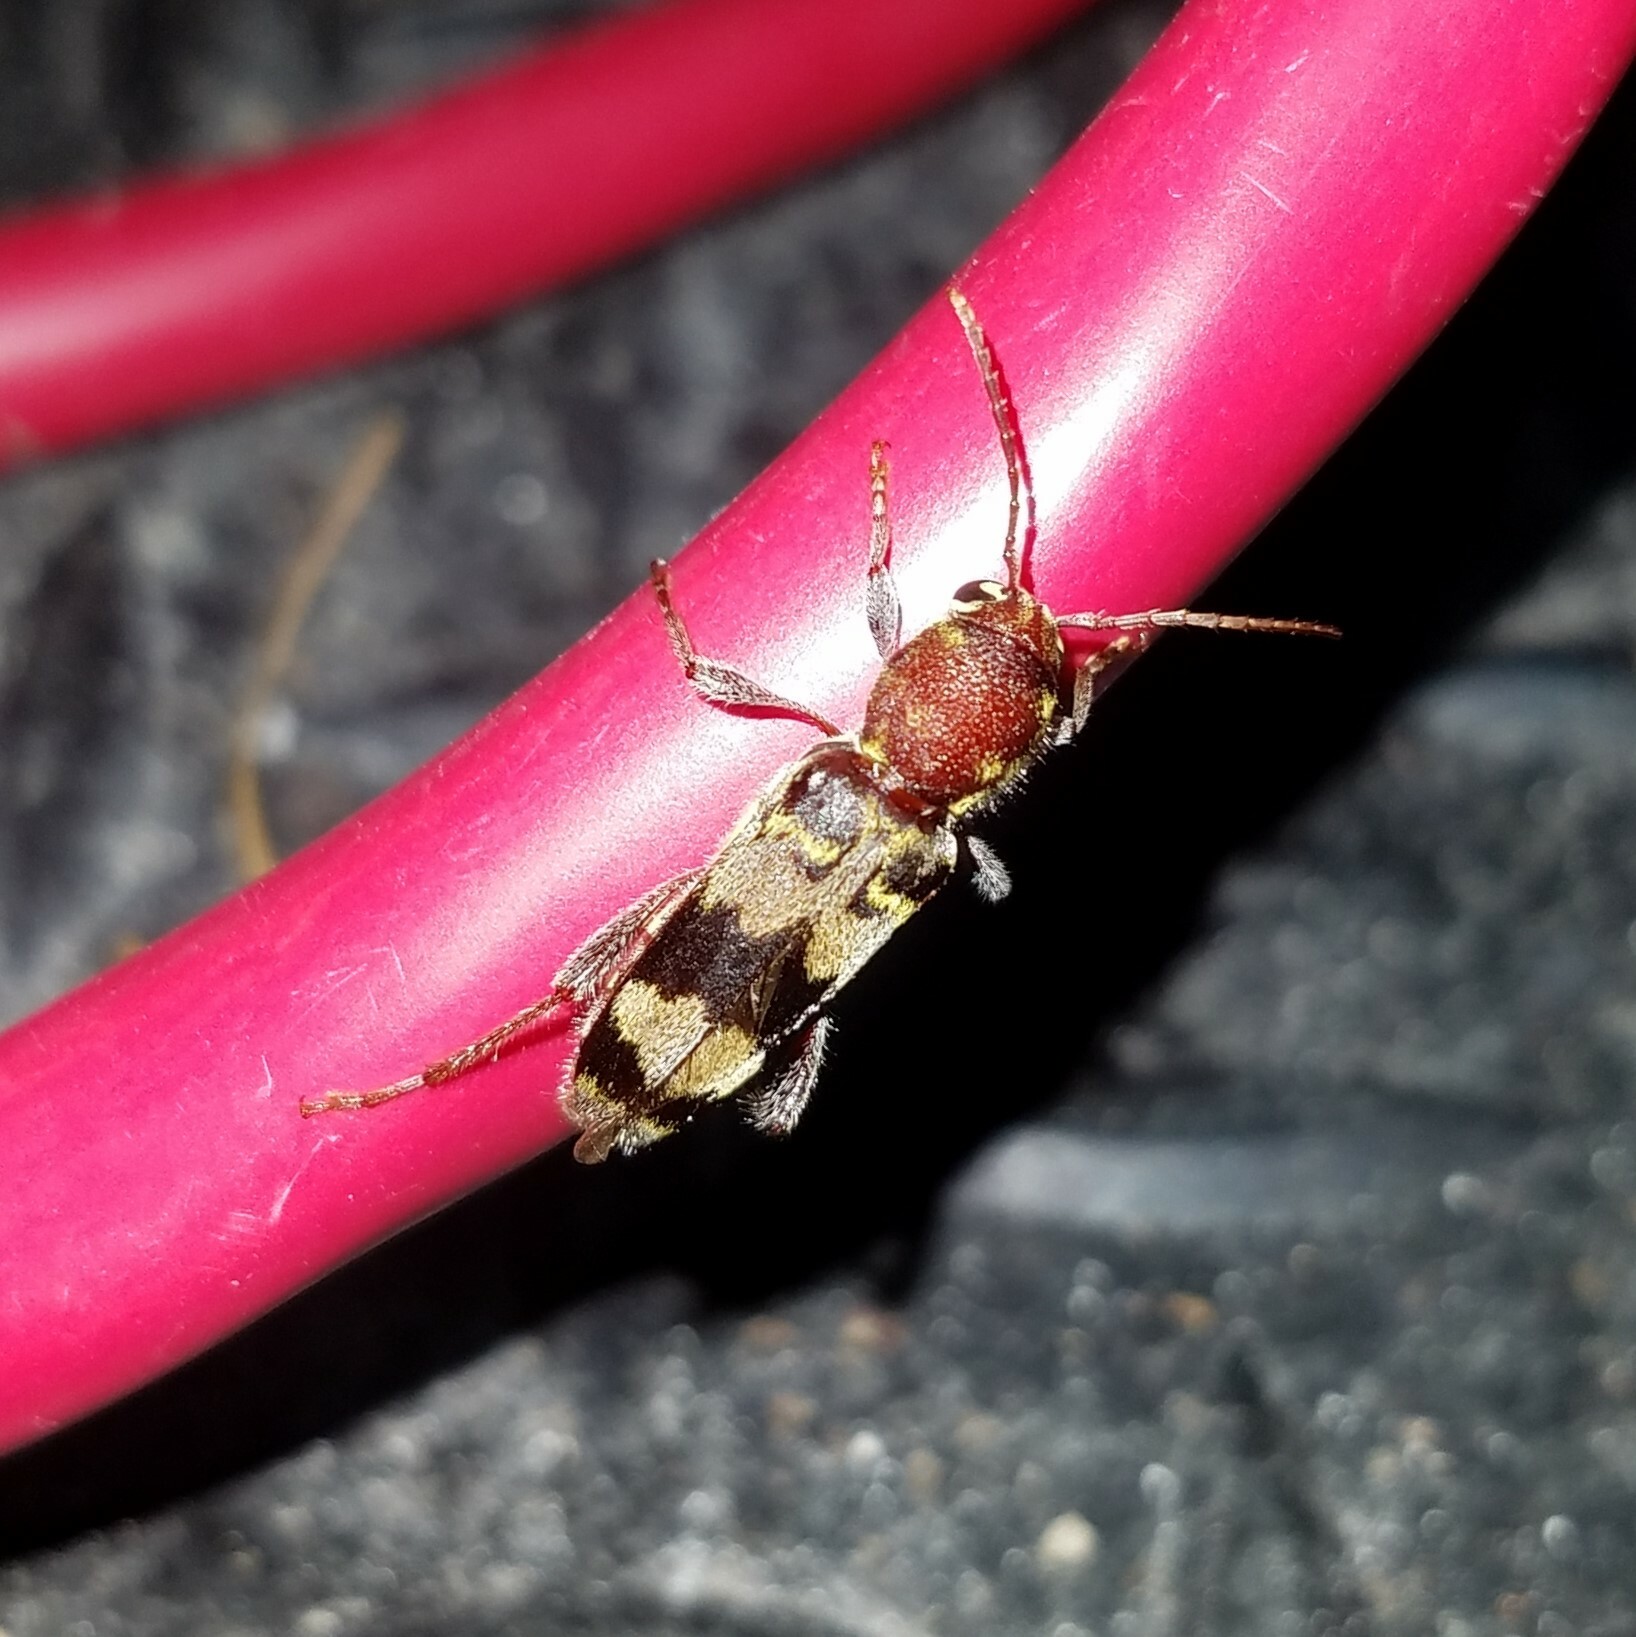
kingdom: Animalia
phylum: Arthropoda
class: Insecta
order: Coleoptera
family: Cerambycidae
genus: Xylotrechus
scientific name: Xylotrechus colonus
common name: Long-horned beetle
